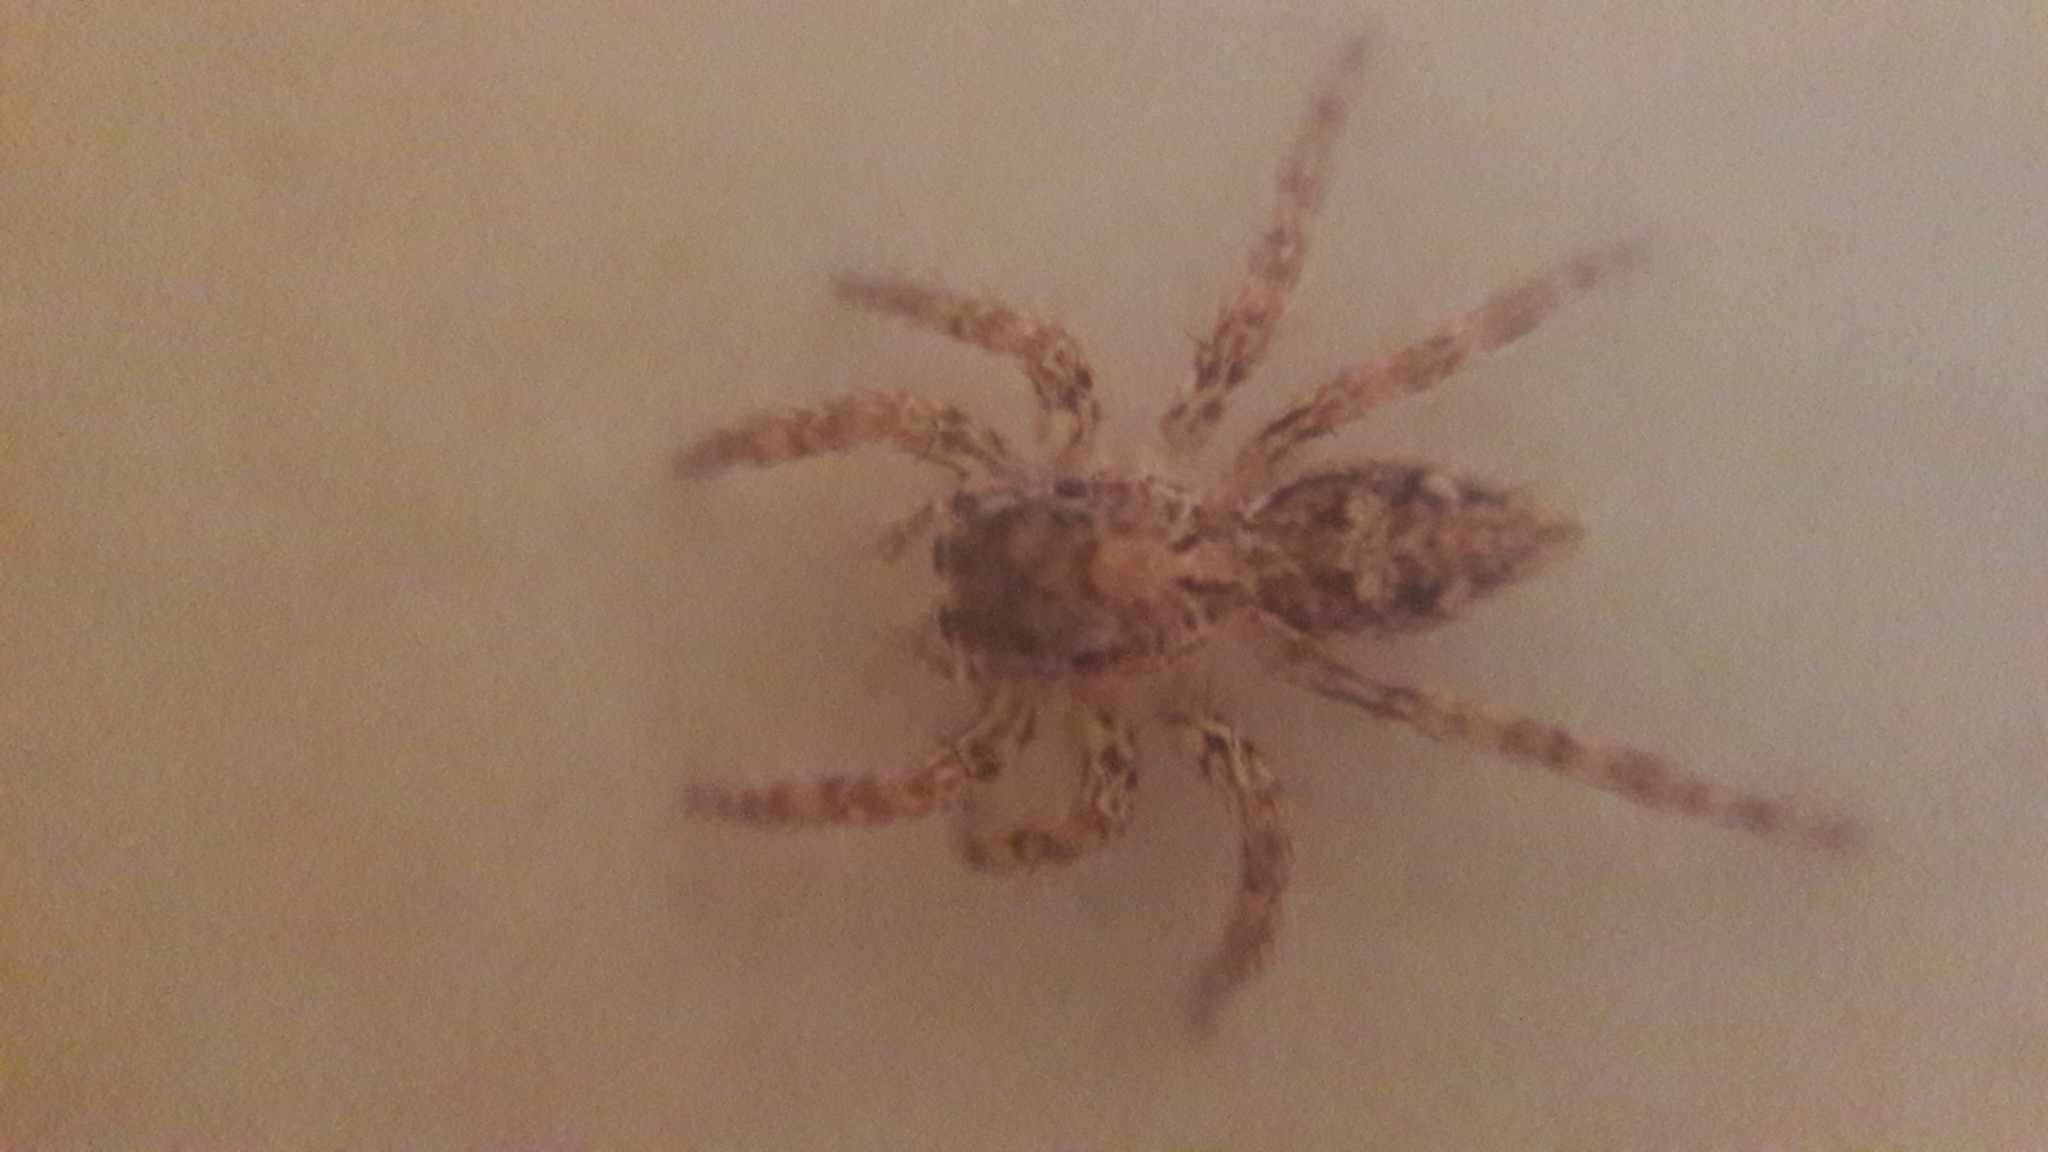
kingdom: Animalia
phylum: Arthropoda
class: Arachnida
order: Araneae
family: Salticidae
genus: Plexippus
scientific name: Plexippus petersi
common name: Jumping spider
